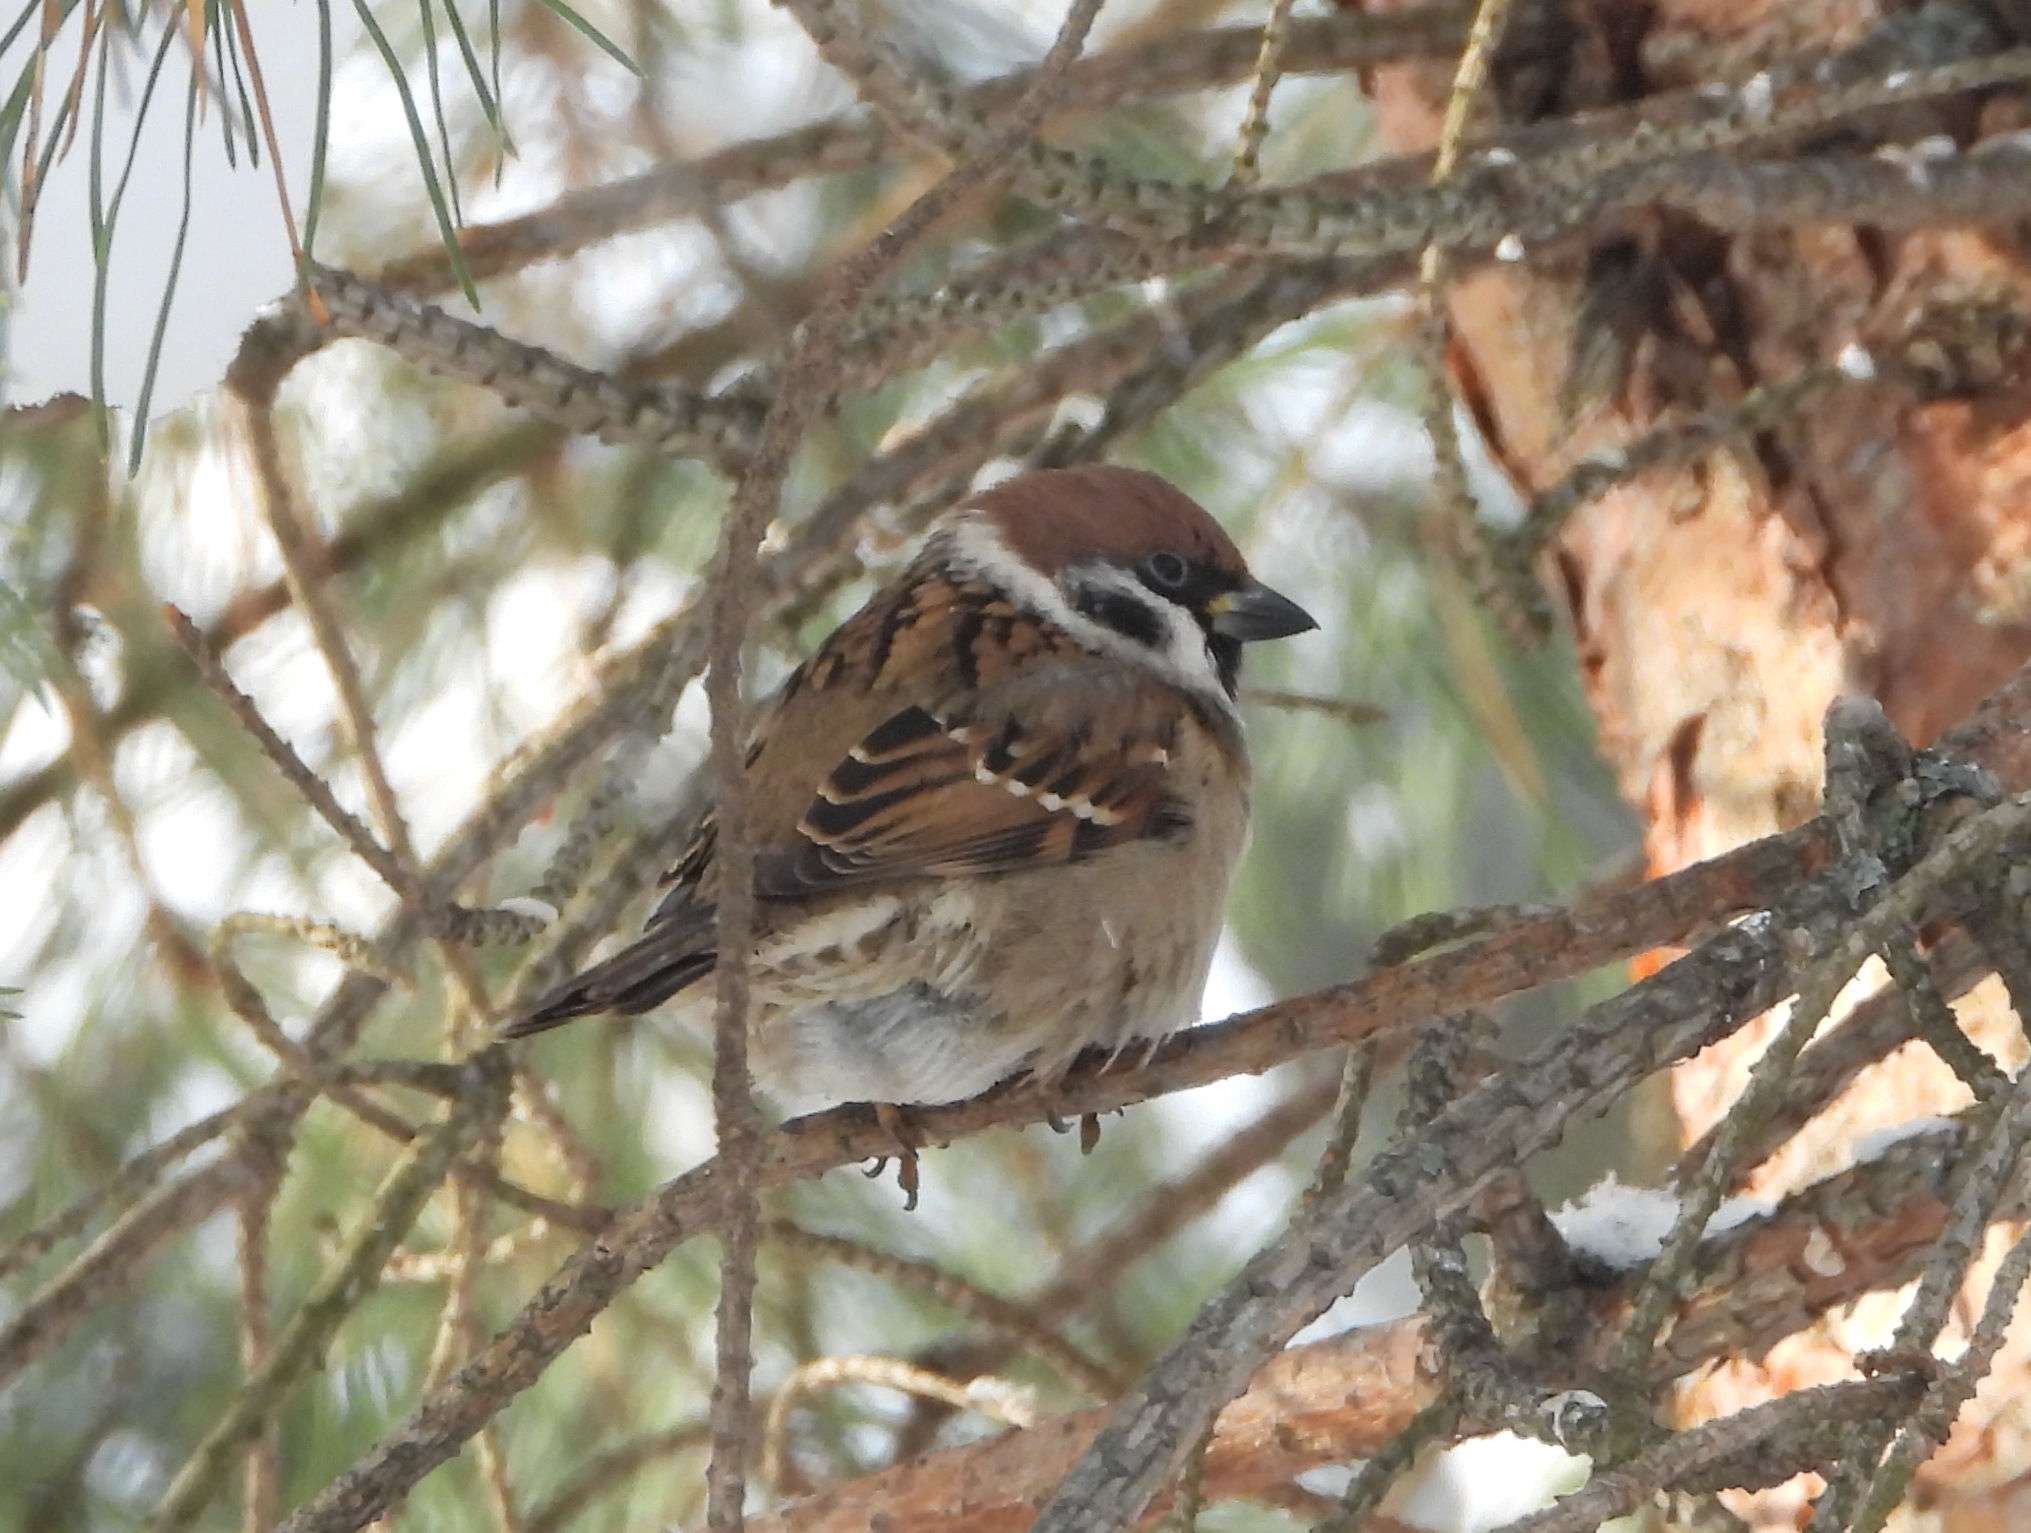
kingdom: Animalia
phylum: Chordata
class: Aves
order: Passeriformes
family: Passeridae
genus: Passer
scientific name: Passer montanus
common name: Eurasian tree sparrow
